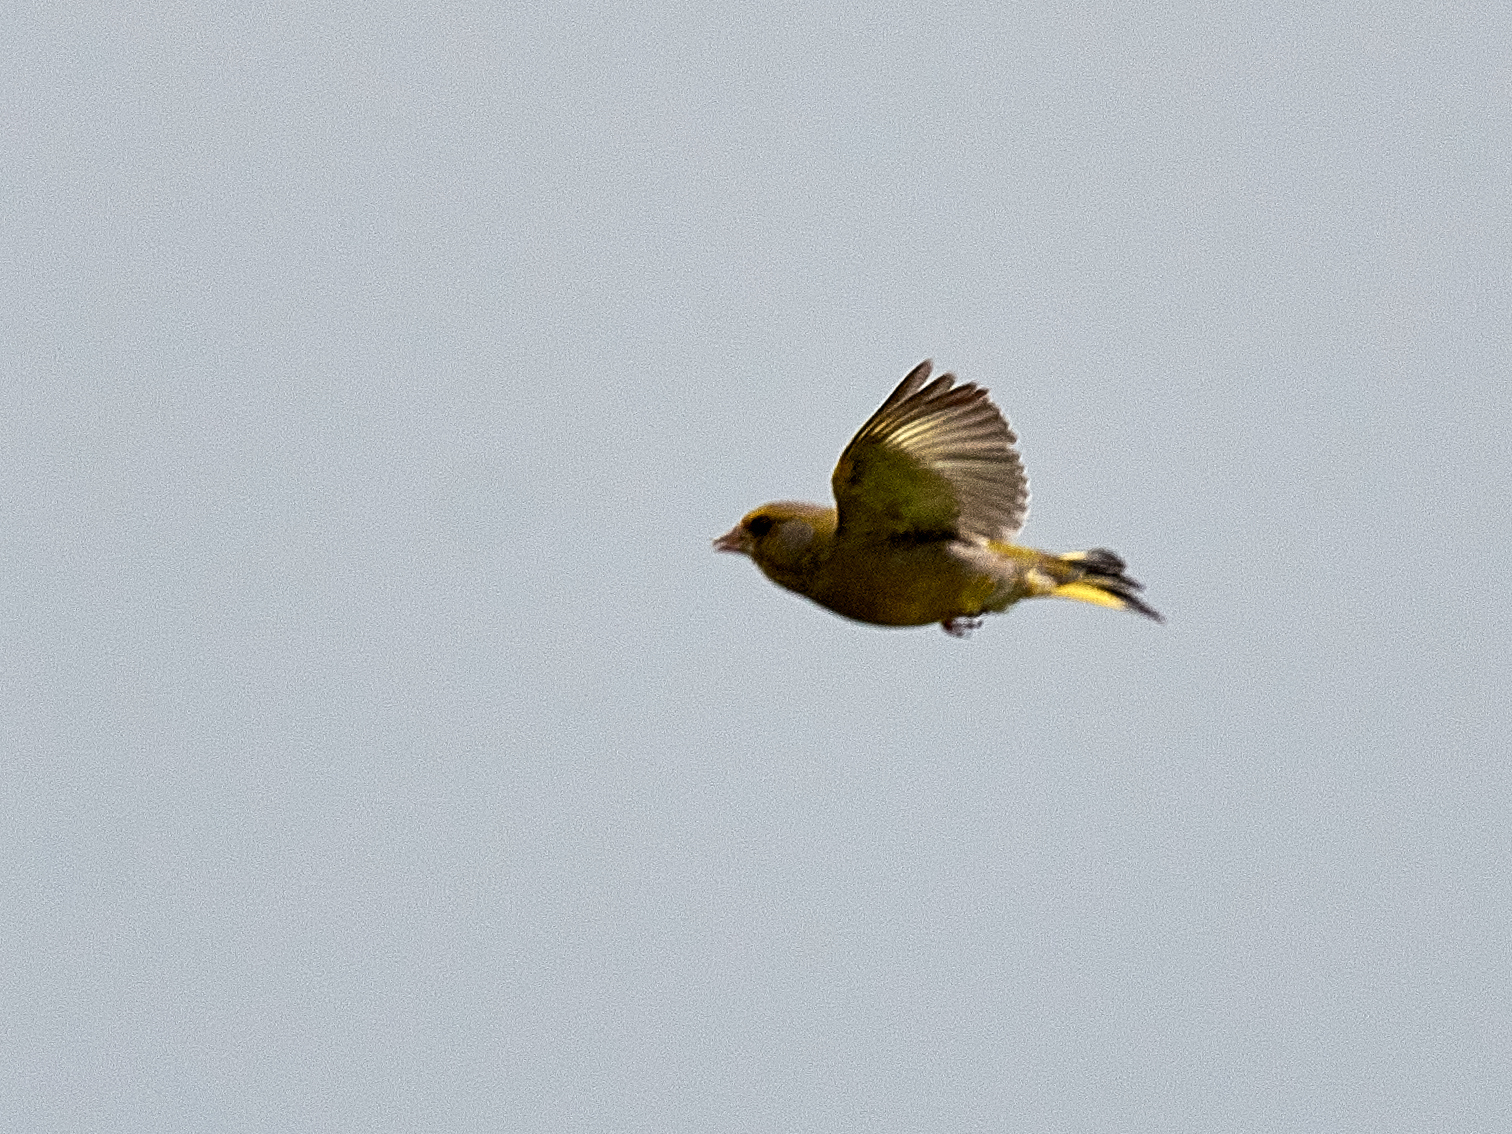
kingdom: Plantae
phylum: Tracheophyta
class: Liliopsida
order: Poales
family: Poaceae
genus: Chloris
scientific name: Chloris chloris
